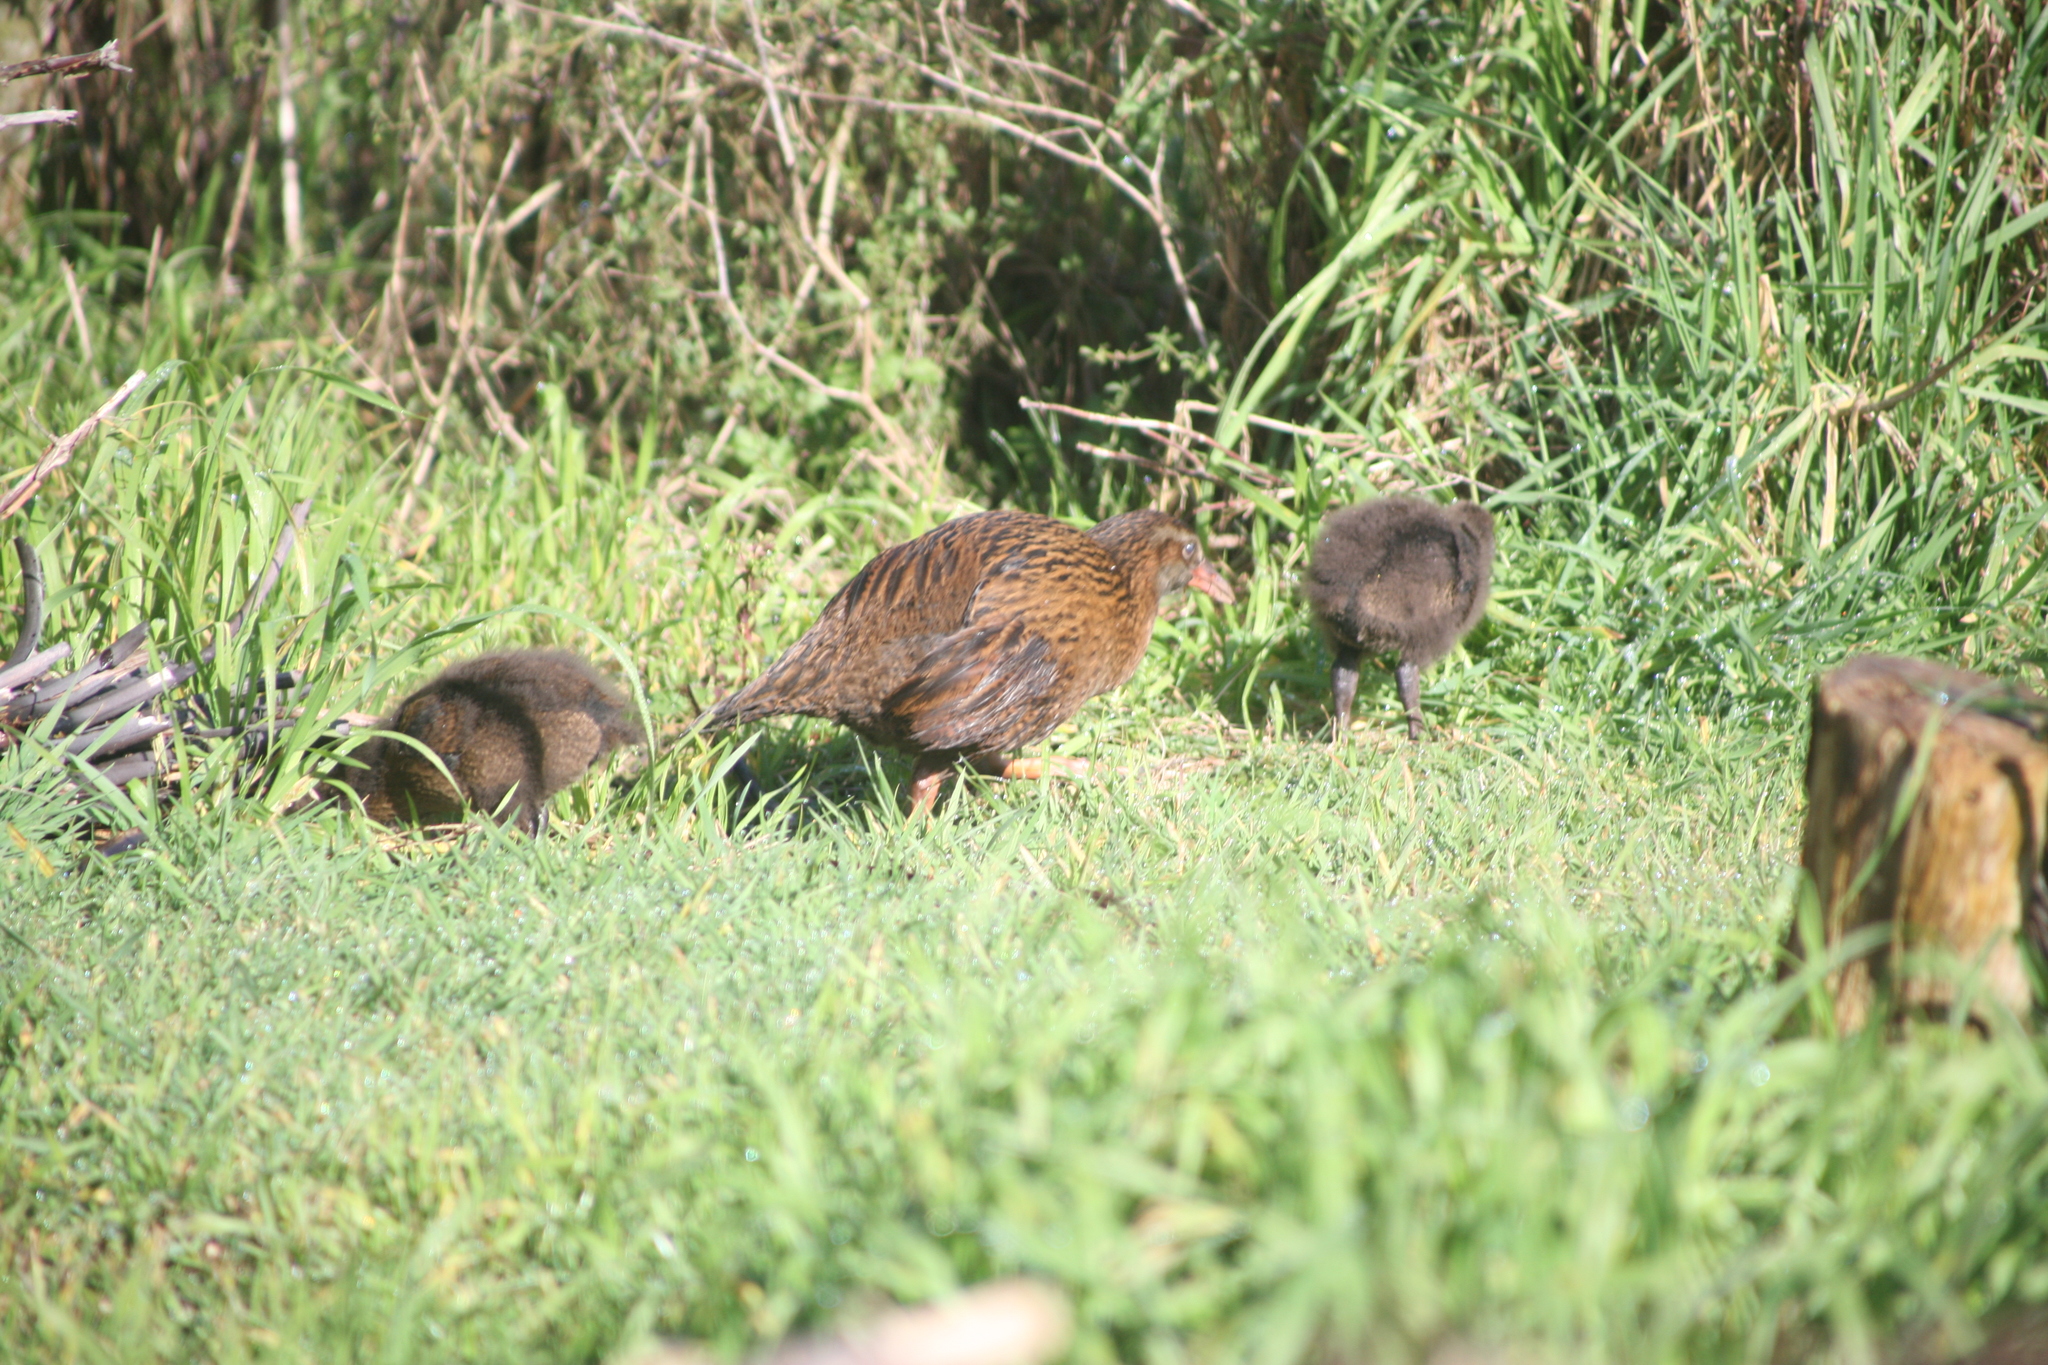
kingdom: Animalia
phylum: Chordata
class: Aves
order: Gruiformes
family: Rallidae
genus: Gallirallus
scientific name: Gallirallus australis
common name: Weka
